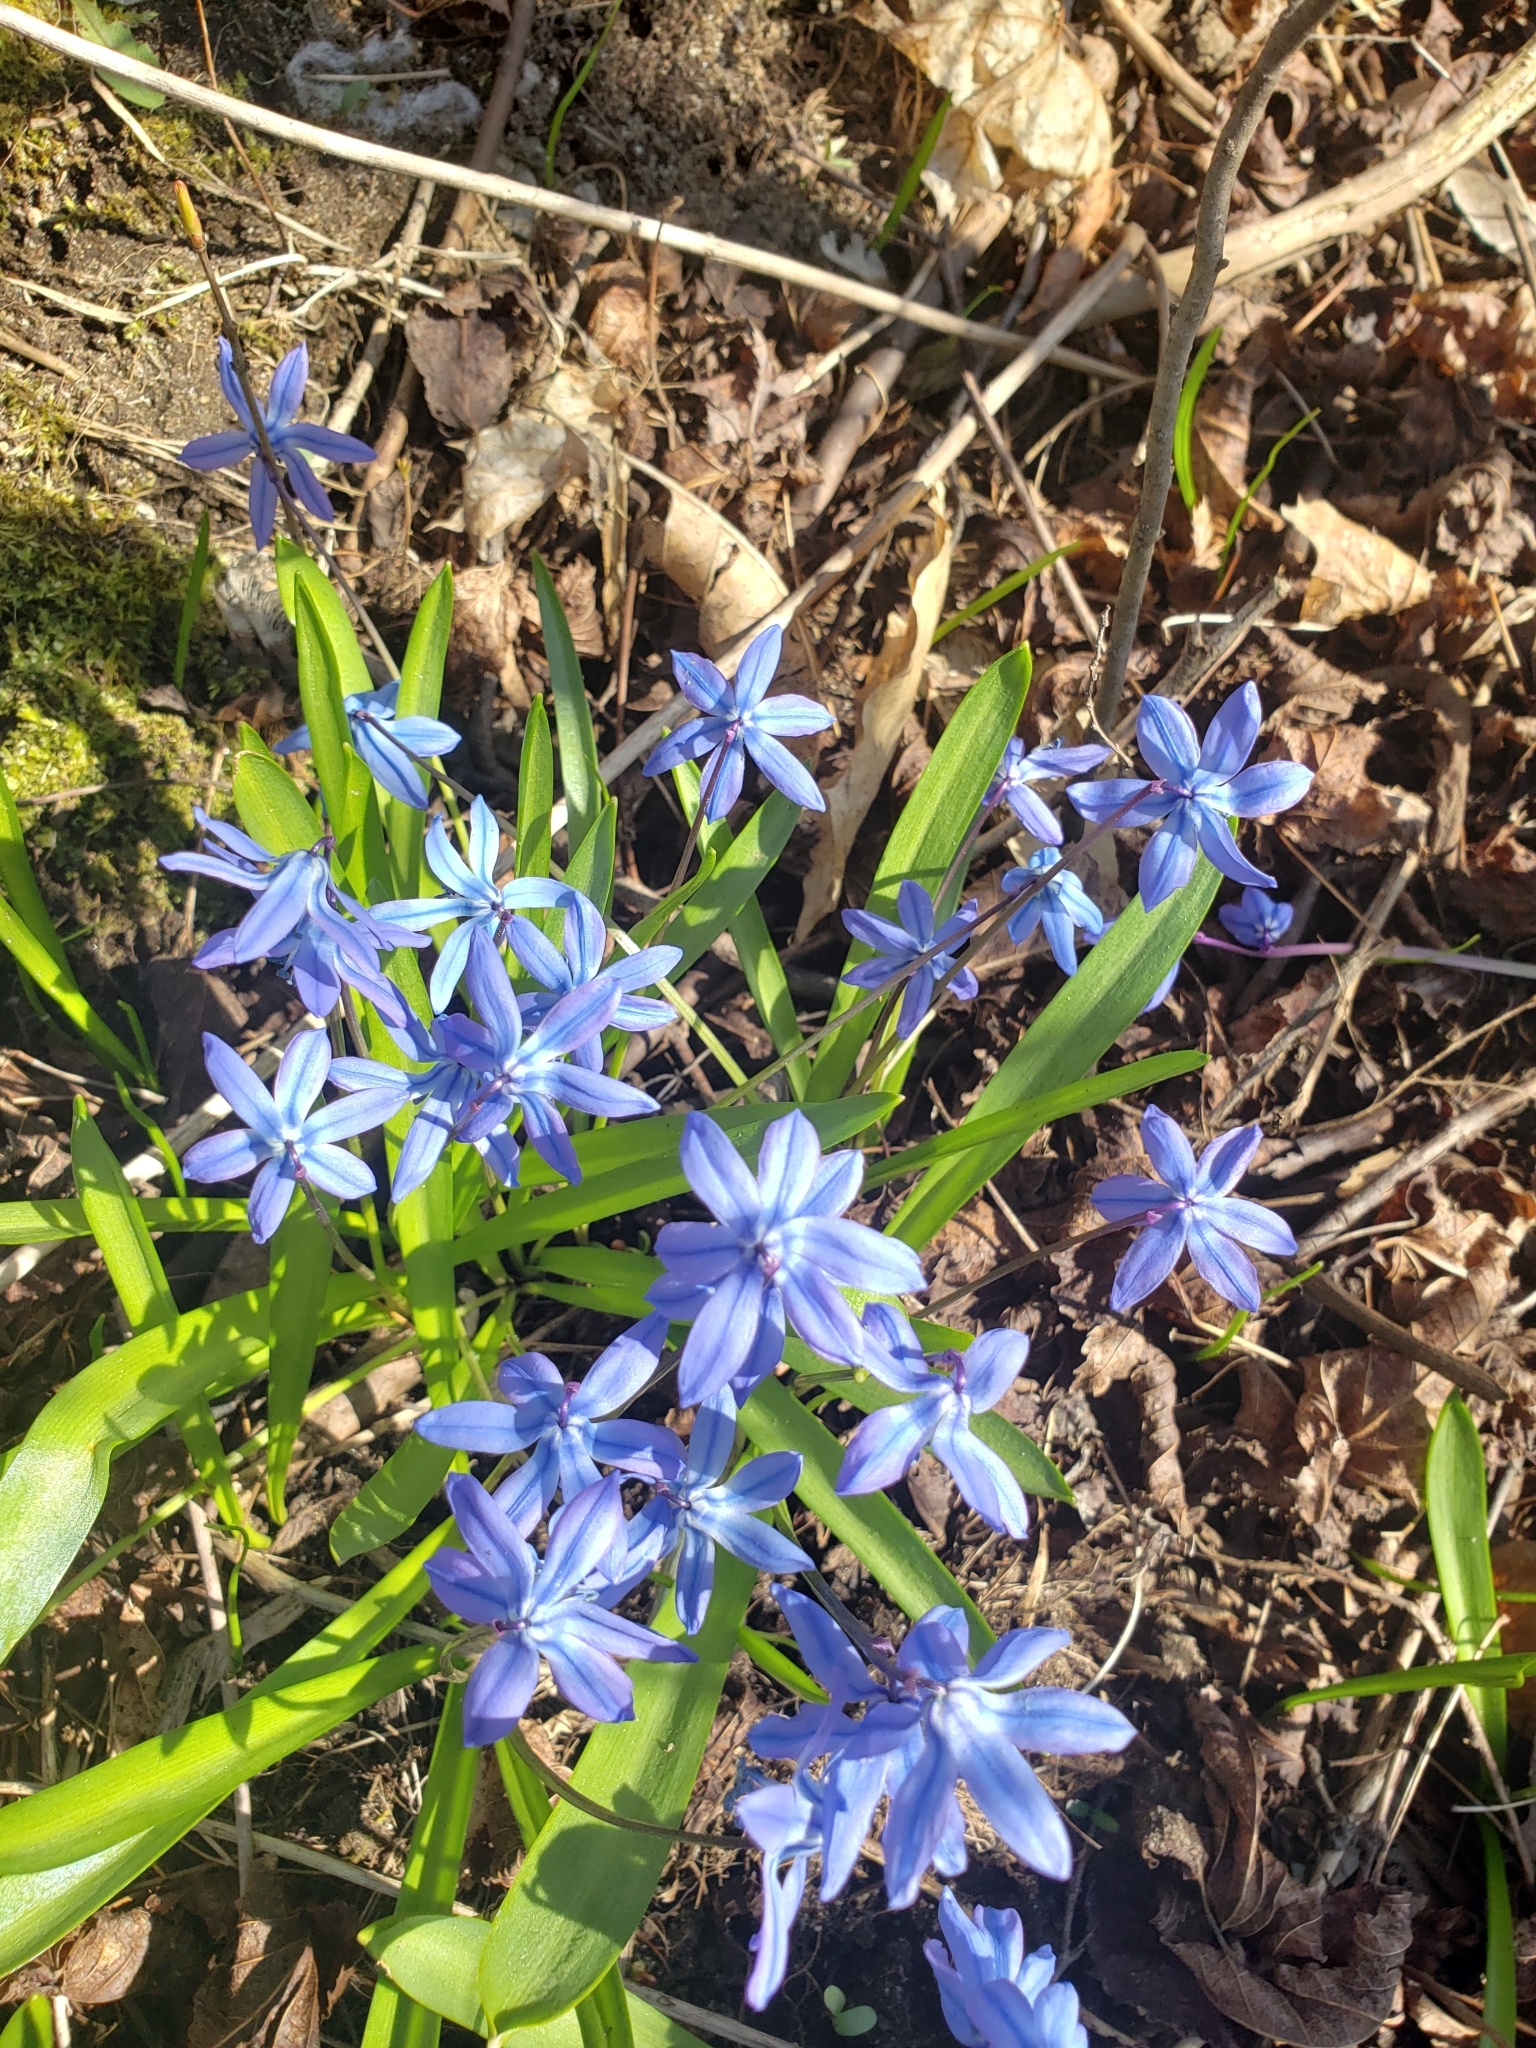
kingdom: Plantae
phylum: Tracheophyta
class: Liliopsida
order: Asparagales
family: Asparagaceae
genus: Scilla
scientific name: Scilla siberica
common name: Siberian squill
